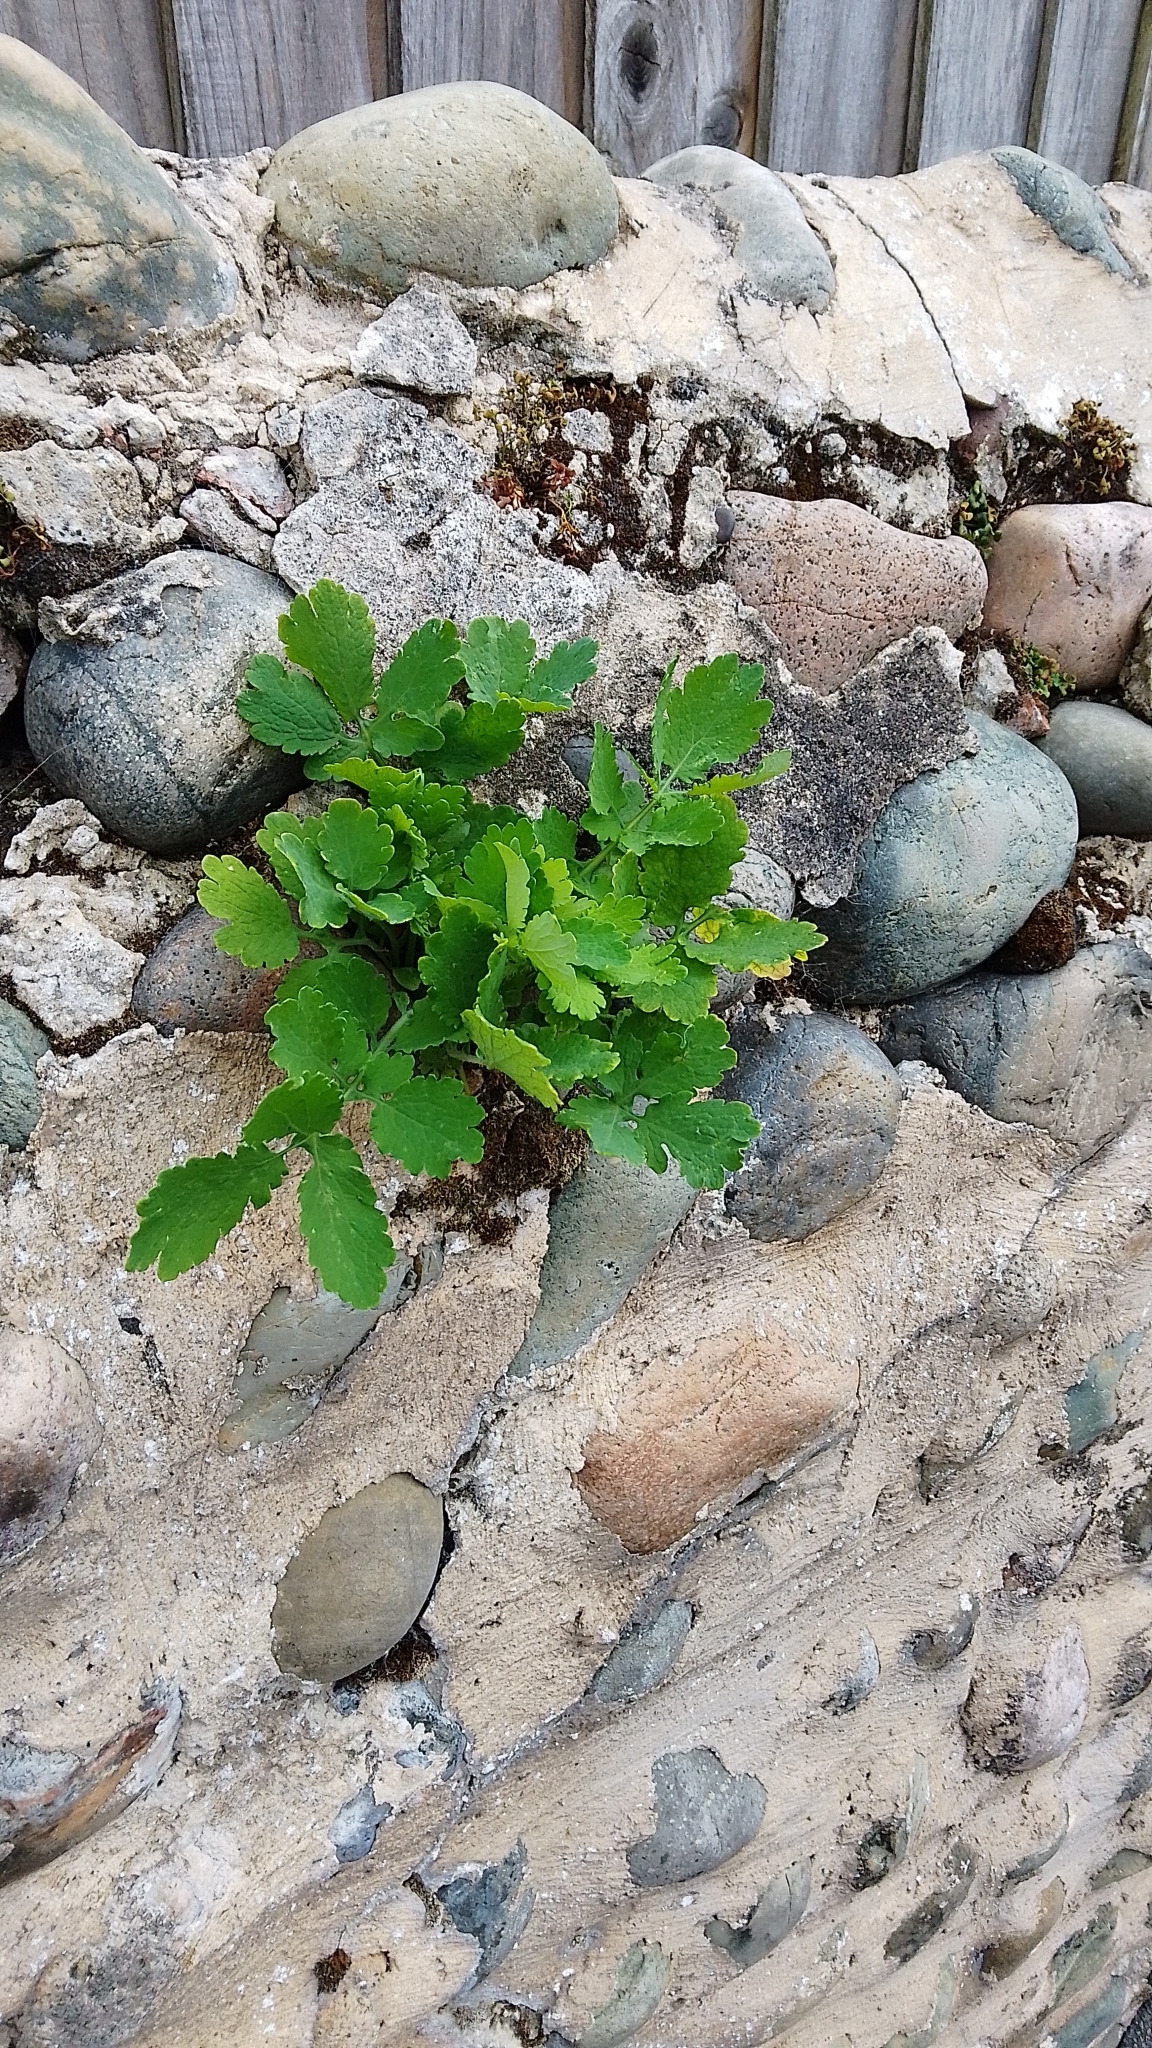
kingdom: Plantae
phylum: Tracheophyta
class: Magnoliopsida
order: Ranunculales
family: Papaveraceae
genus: Chelidonium
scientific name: Chelidonium majus
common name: Greater celandine
